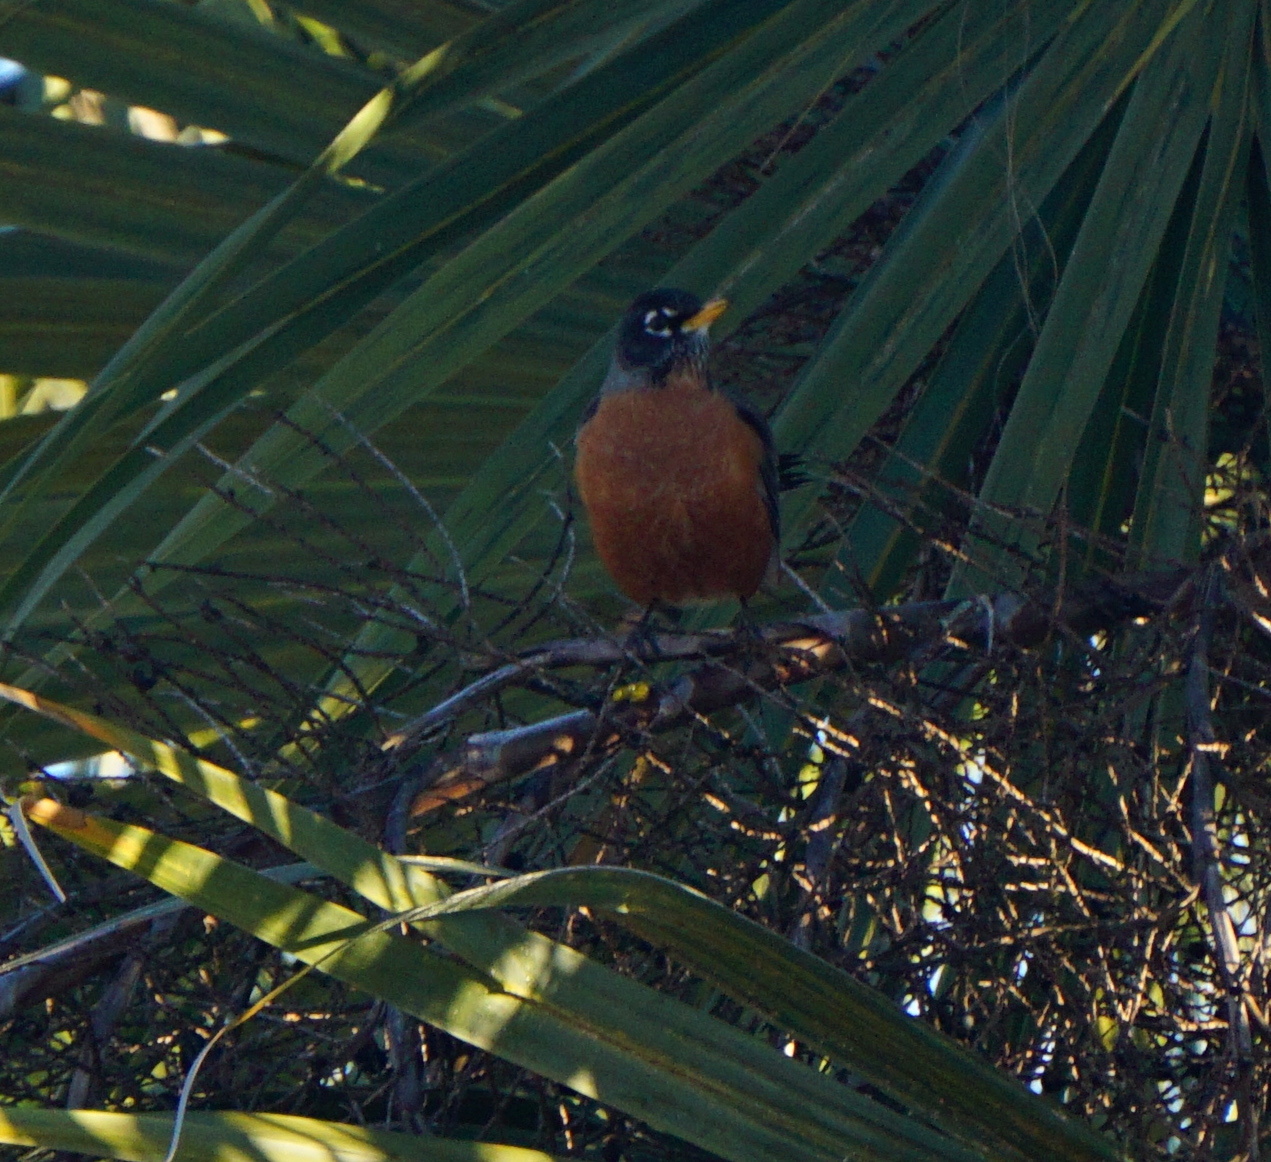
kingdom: Animalia
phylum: Chordata
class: Aves
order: Passeriformes
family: Turdidae
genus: Turdus
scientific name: Turdus migratorius
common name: American robin
